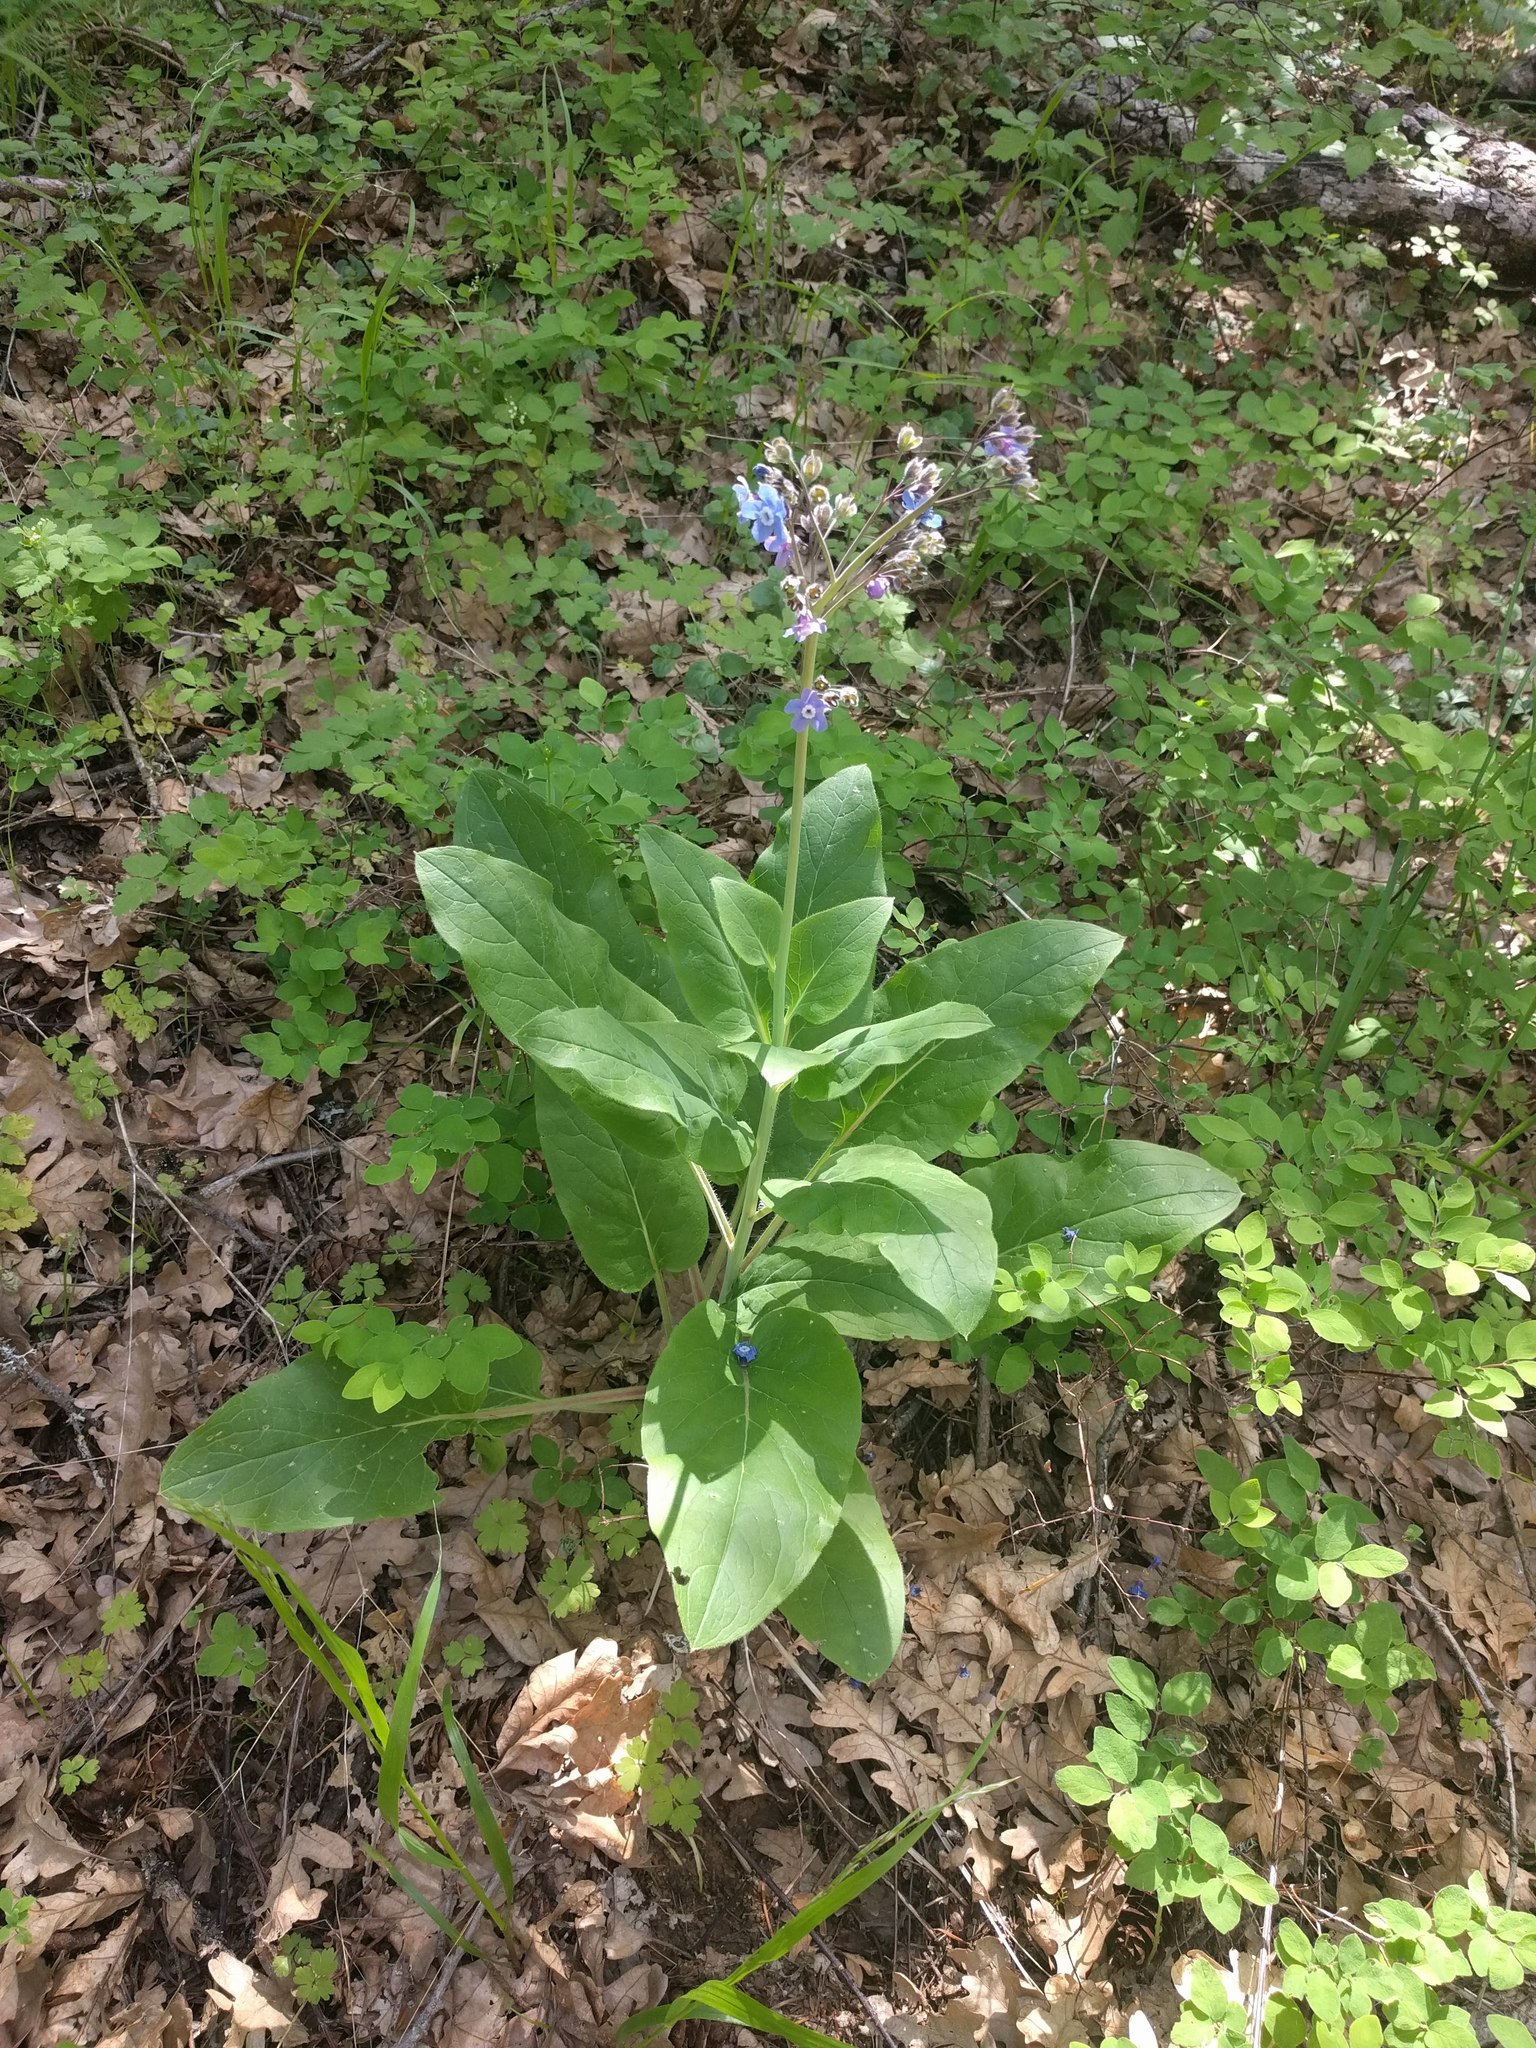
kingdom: Plantae
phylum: Tracheophyta
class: Magnoliopsida
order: Boraginales
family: Boraginaceae
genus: Adelinia
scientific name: Adelinia grande
